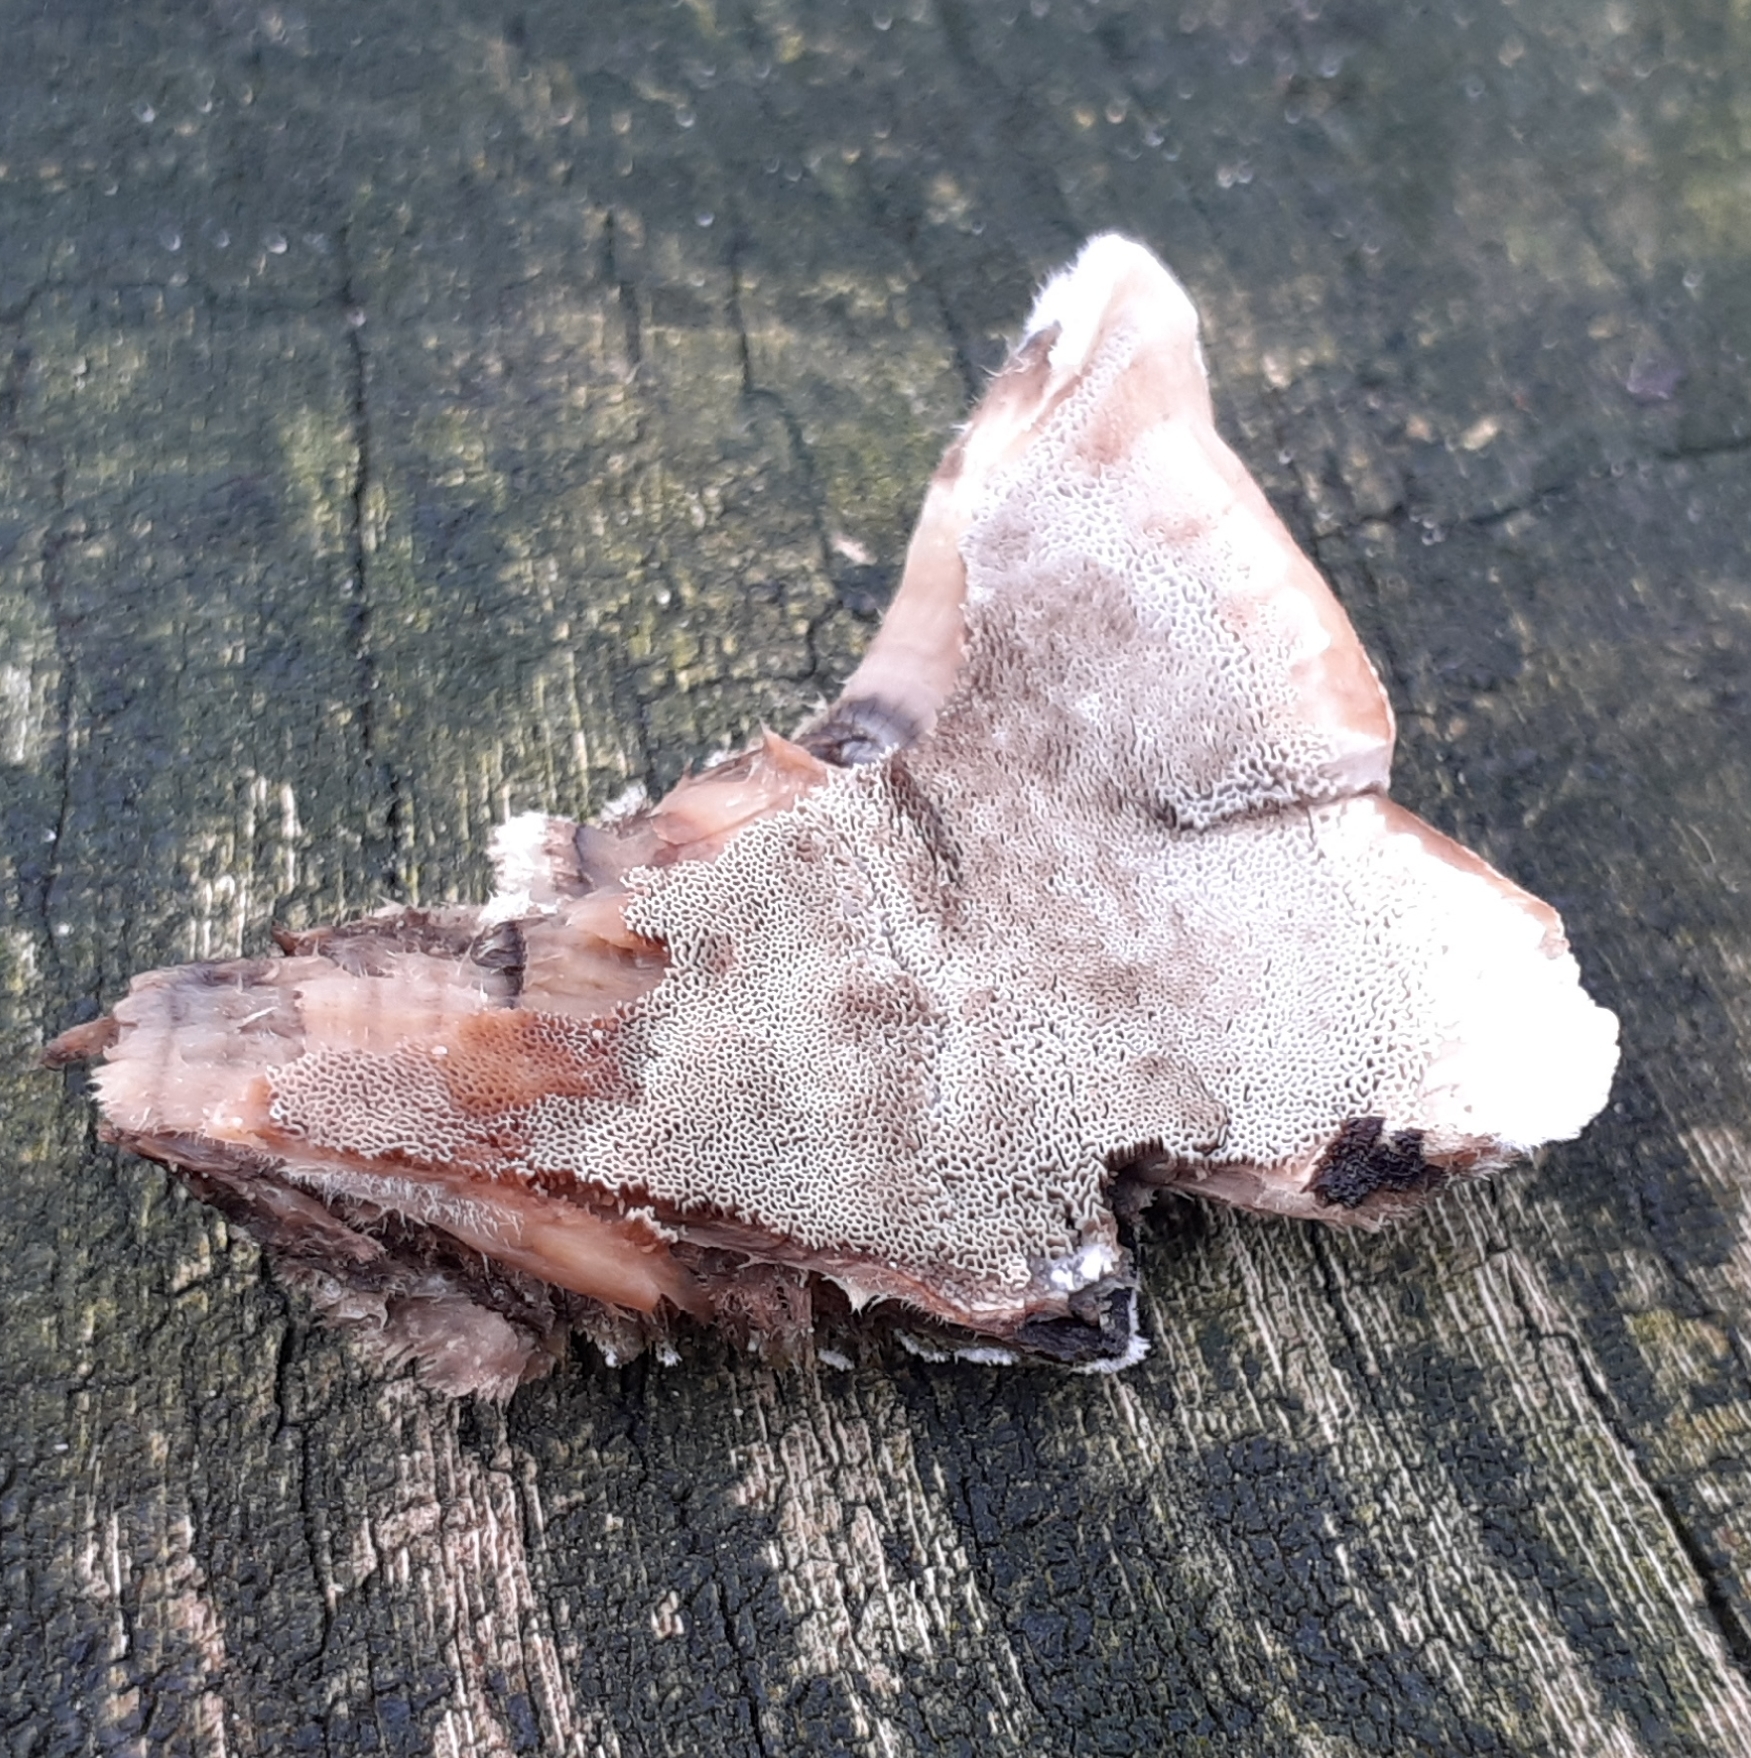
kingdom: Fungi
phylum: Basidiomycota
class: Agaricomycetes
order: Polyporales
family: Phanerochaetaceae
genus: Bjerkandera
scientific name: Bjerkandera adusta
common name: Smoky bracket
